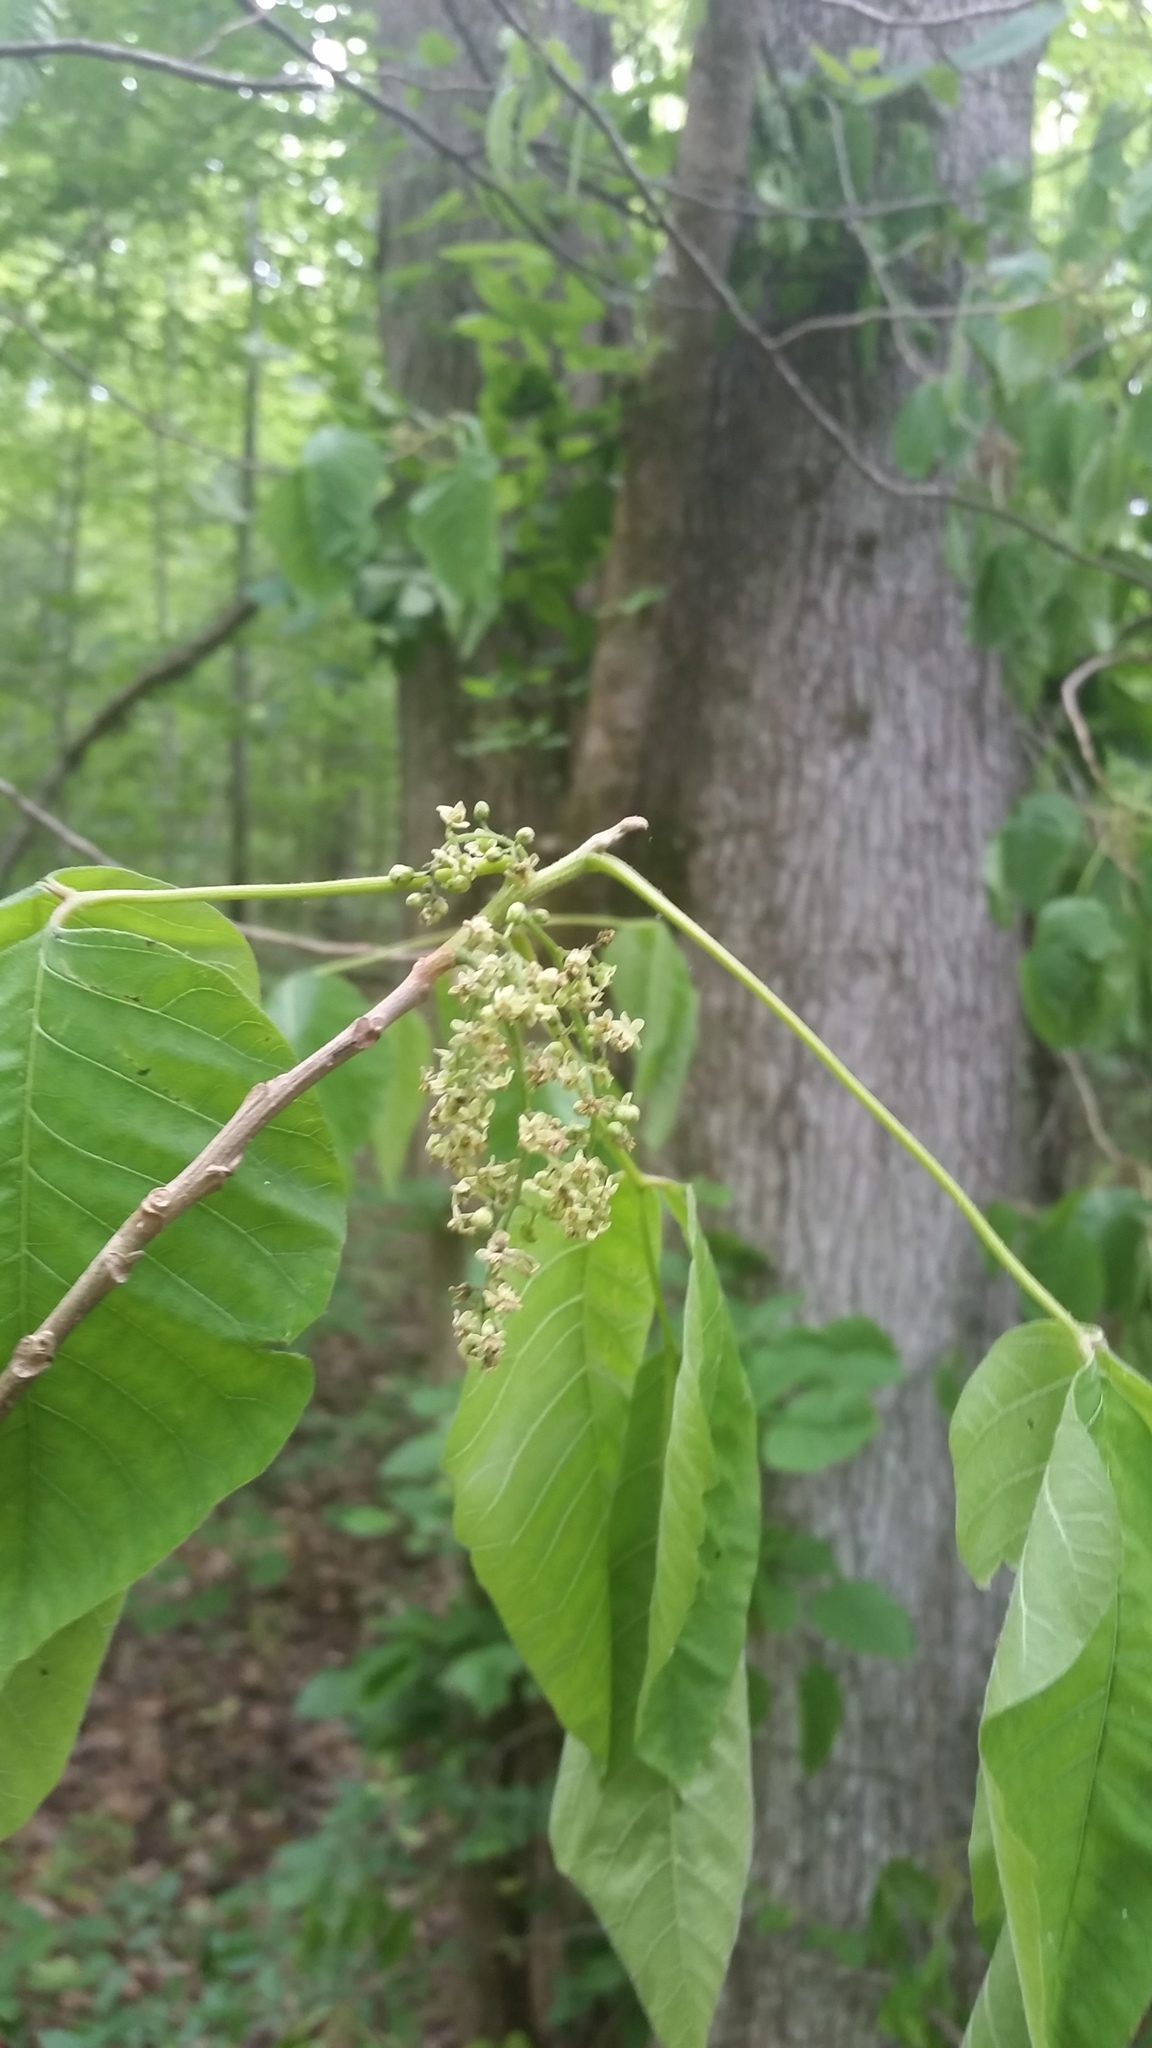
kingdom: Plantae
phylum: Tracheophyta
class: Magnoliopsida
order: Sapindales
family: Anacardiaceae
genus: Toxicodendron
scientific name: Toxicodendron radicans
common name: Poison ivy
